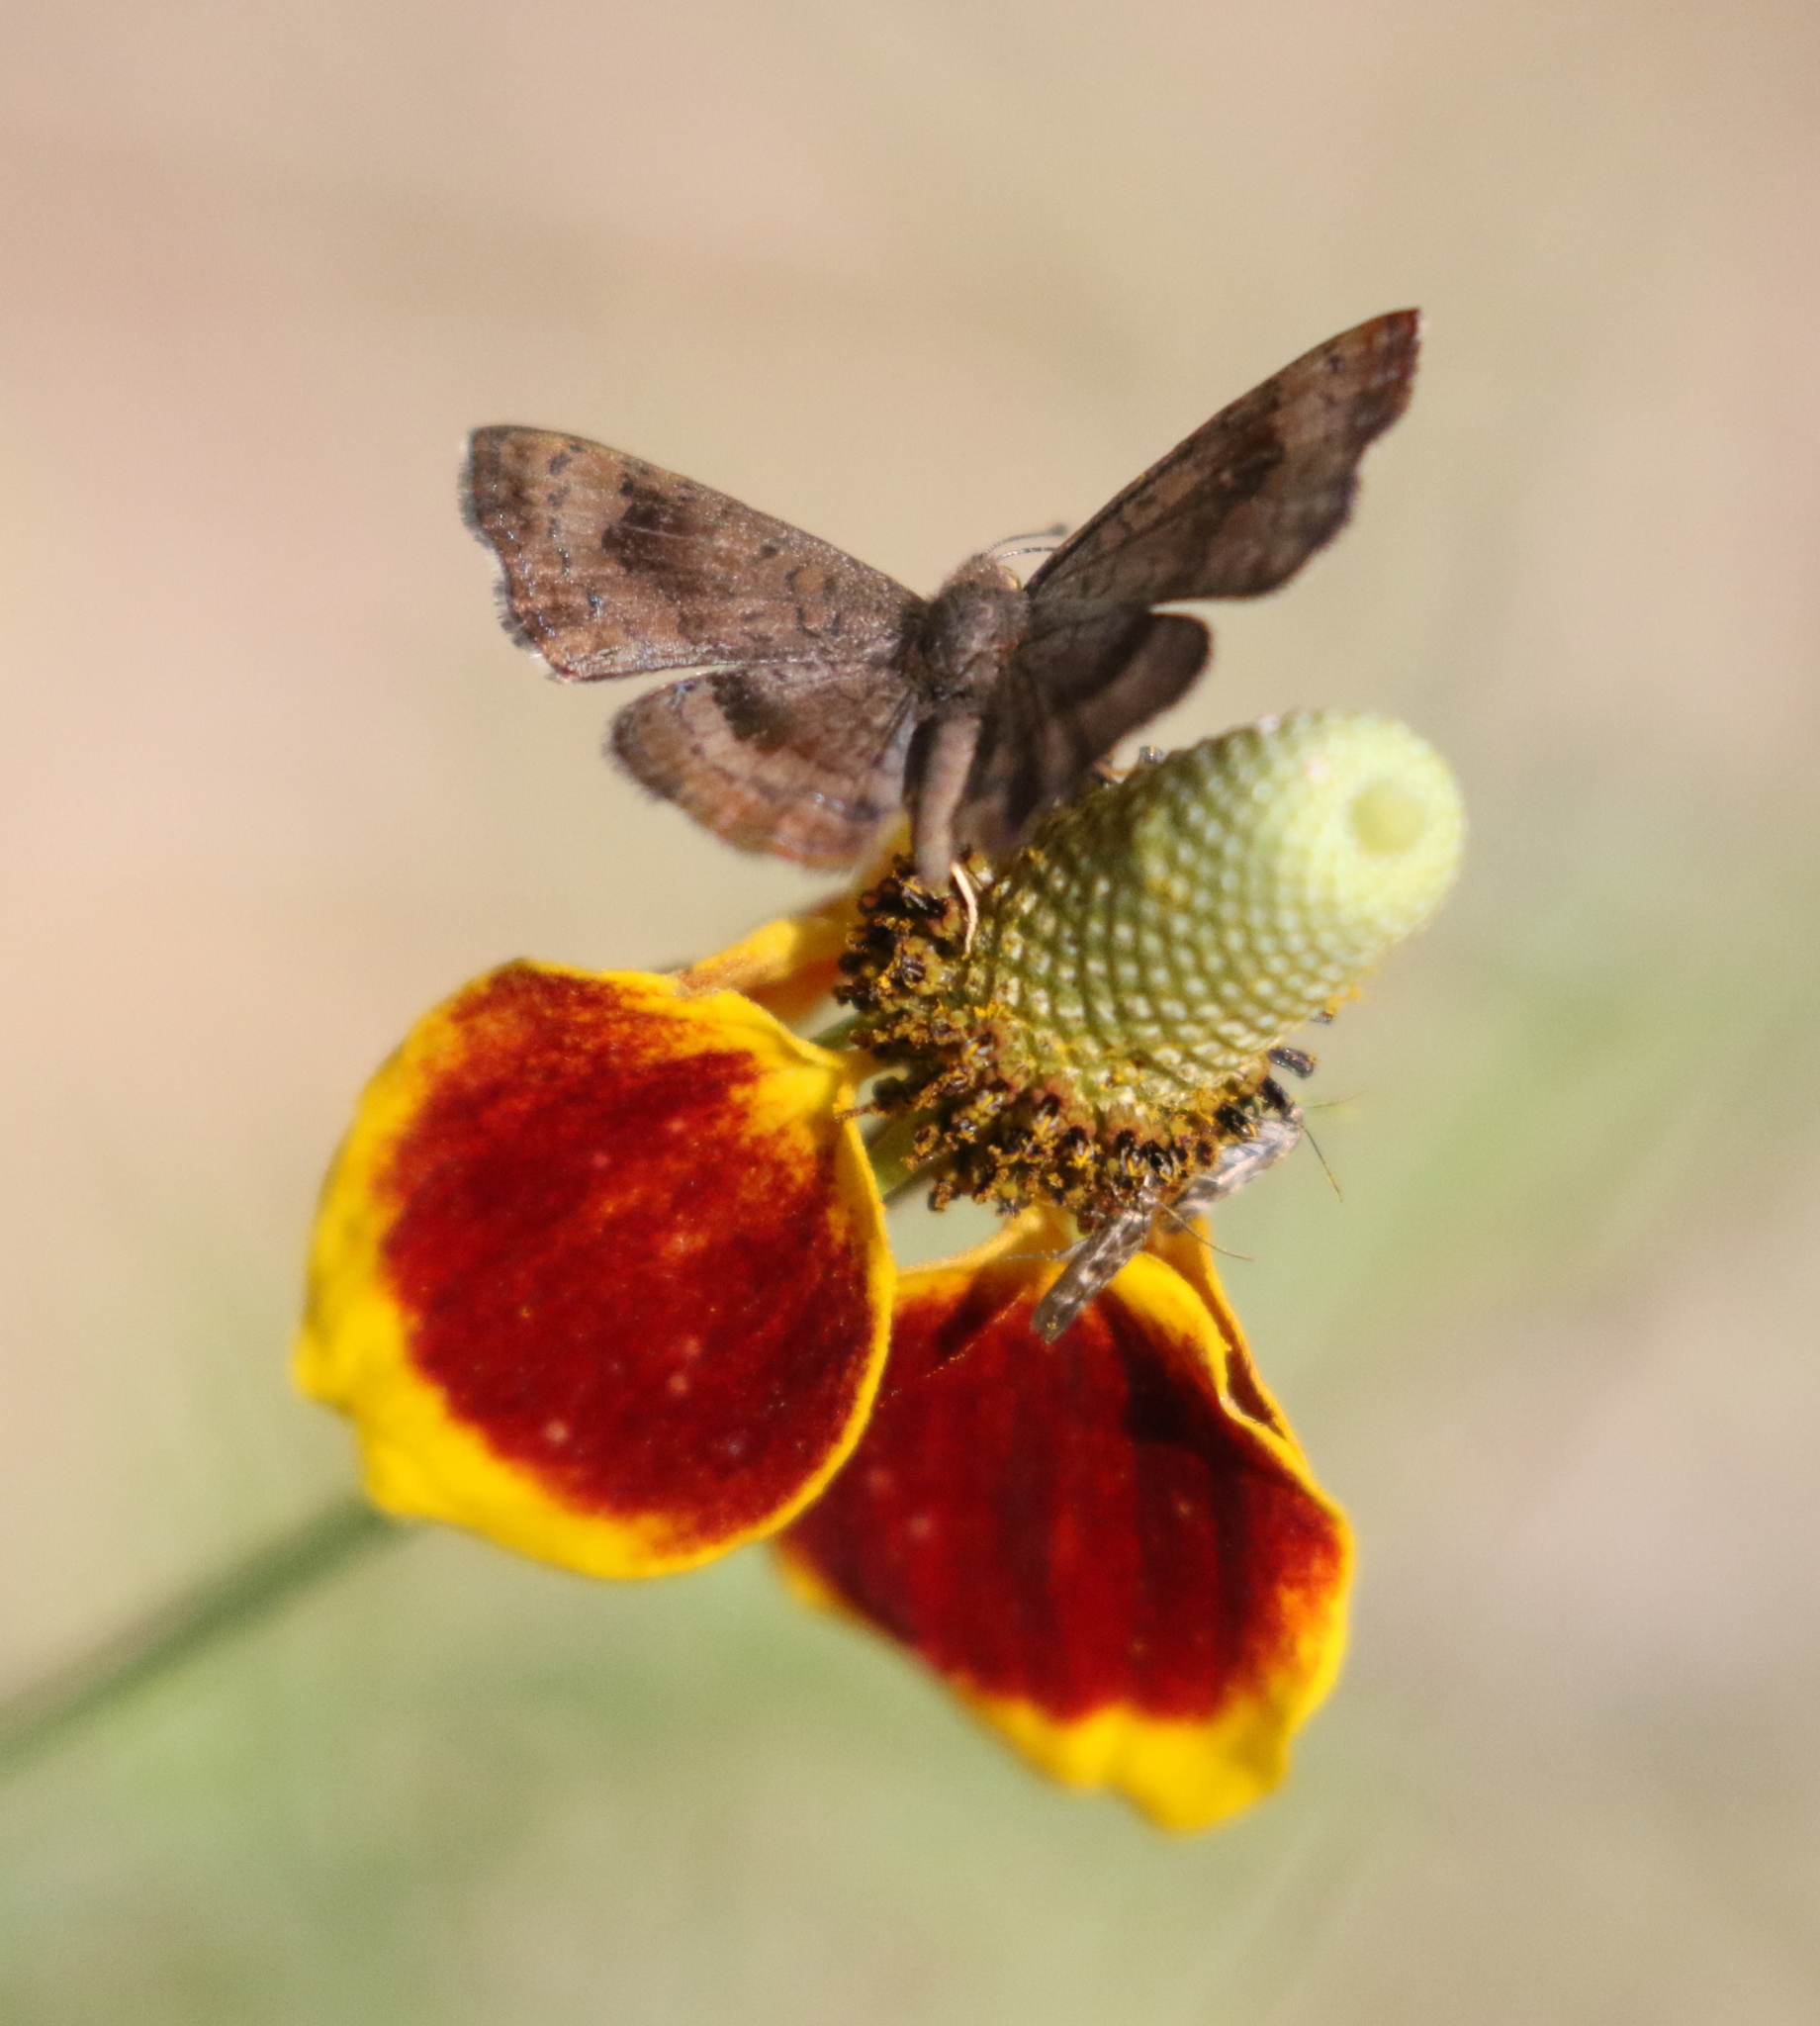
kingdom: Animalia
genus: Calephelis
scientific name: Calephelis nemesis
